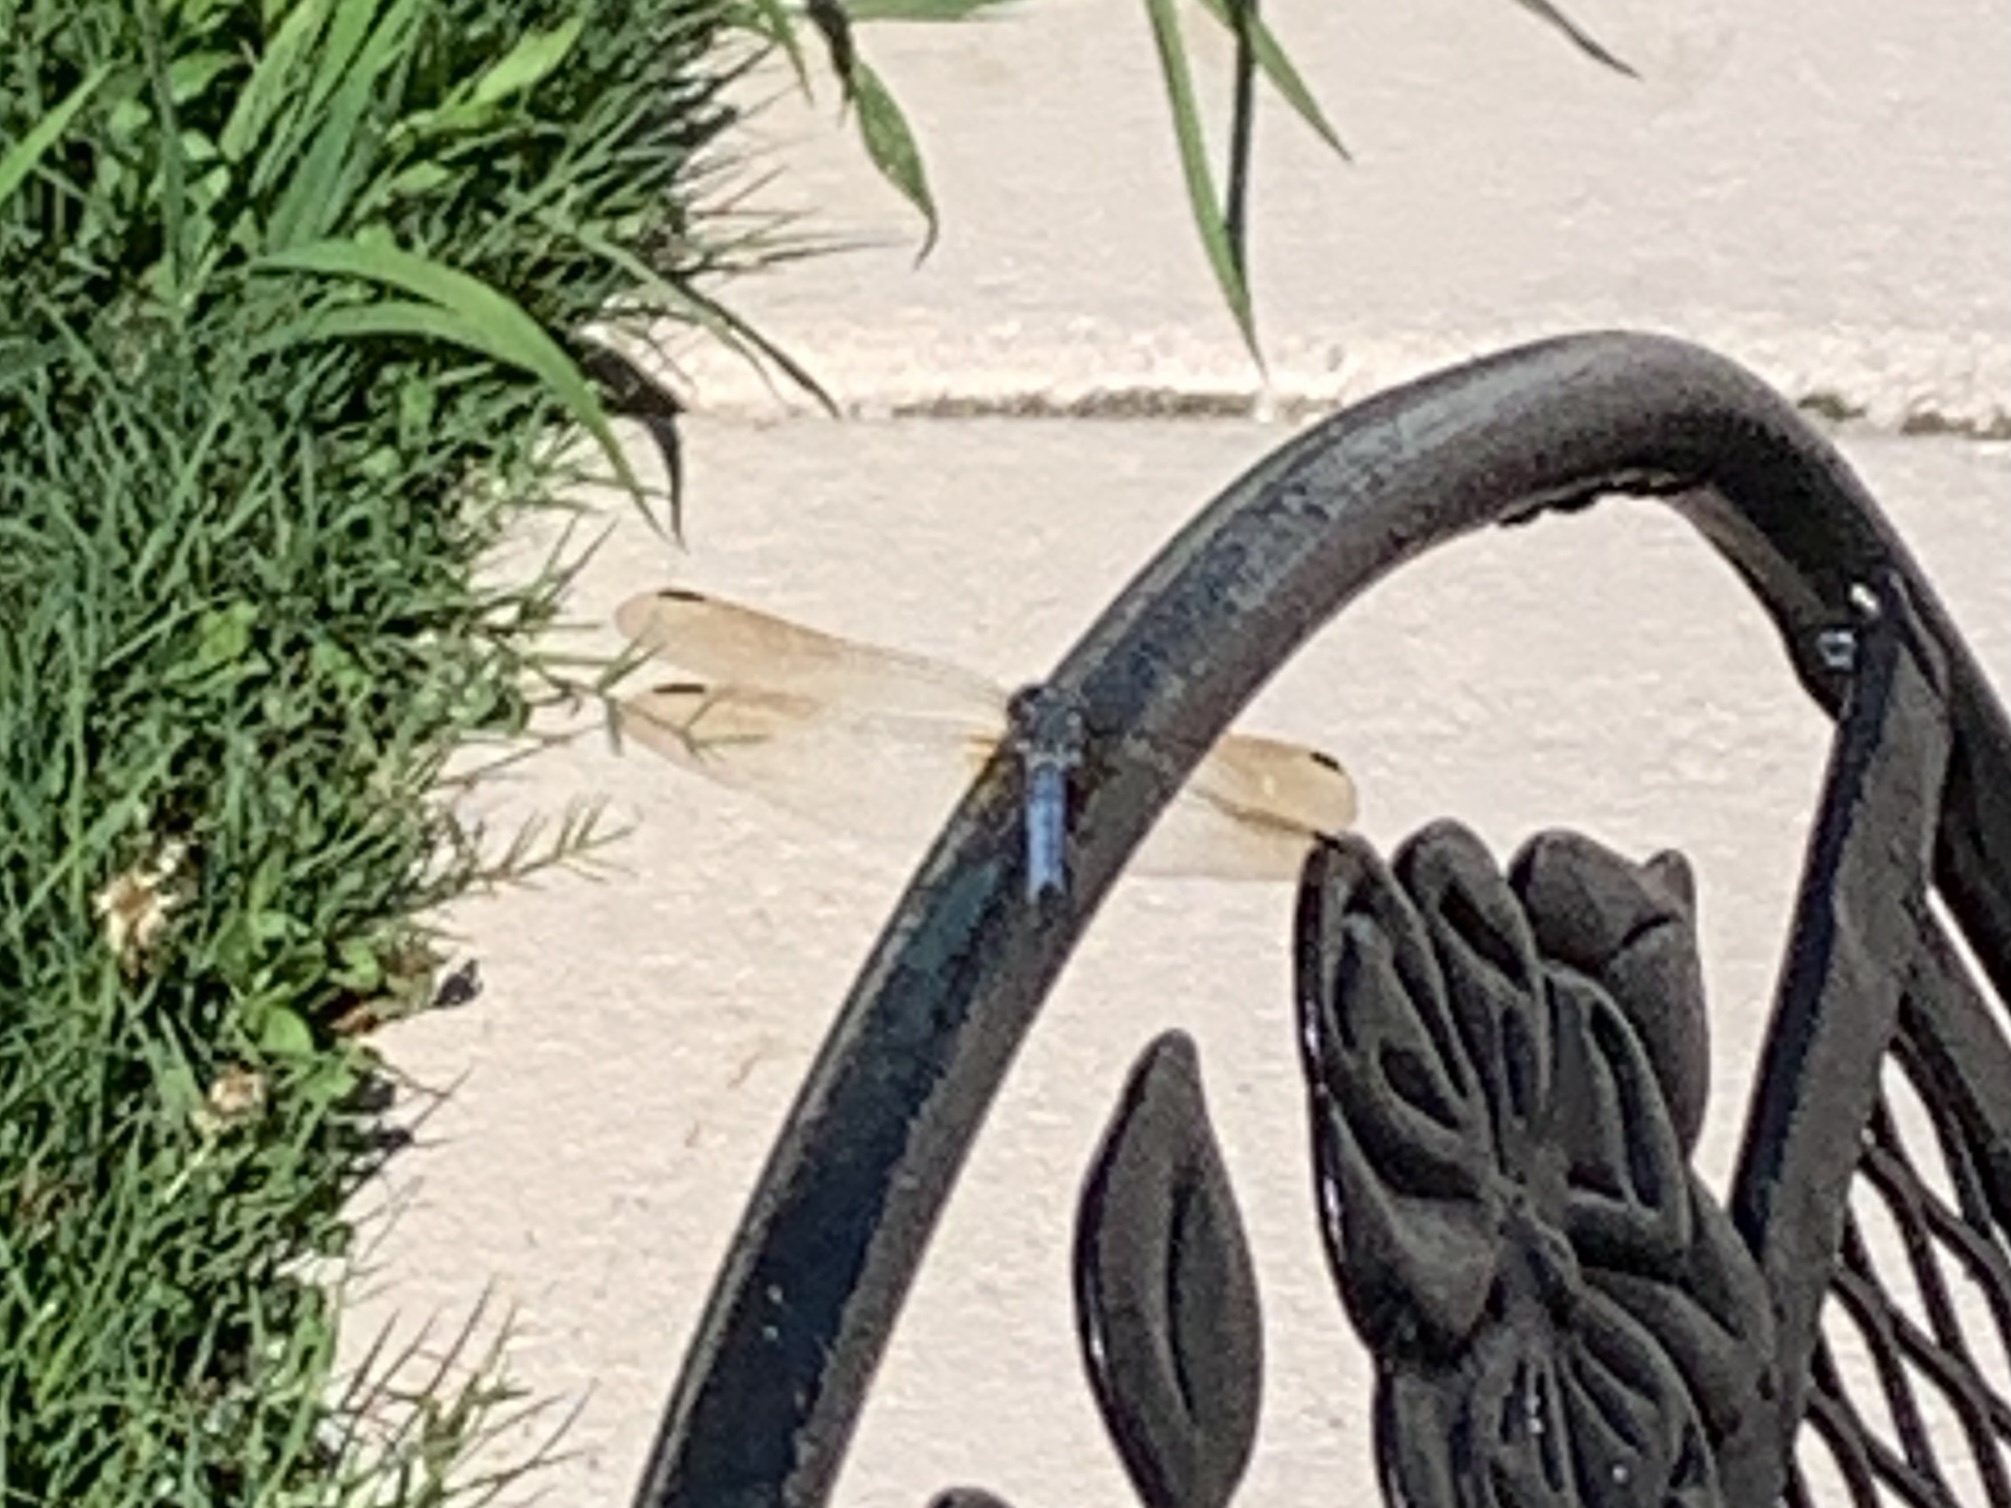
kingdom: Animalia
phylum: Arthropoda
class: Insecta
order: Odonata
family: Libellulidae
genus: Pachydiplax
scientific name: Pachydiplax longipennis
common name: Blue dasher
